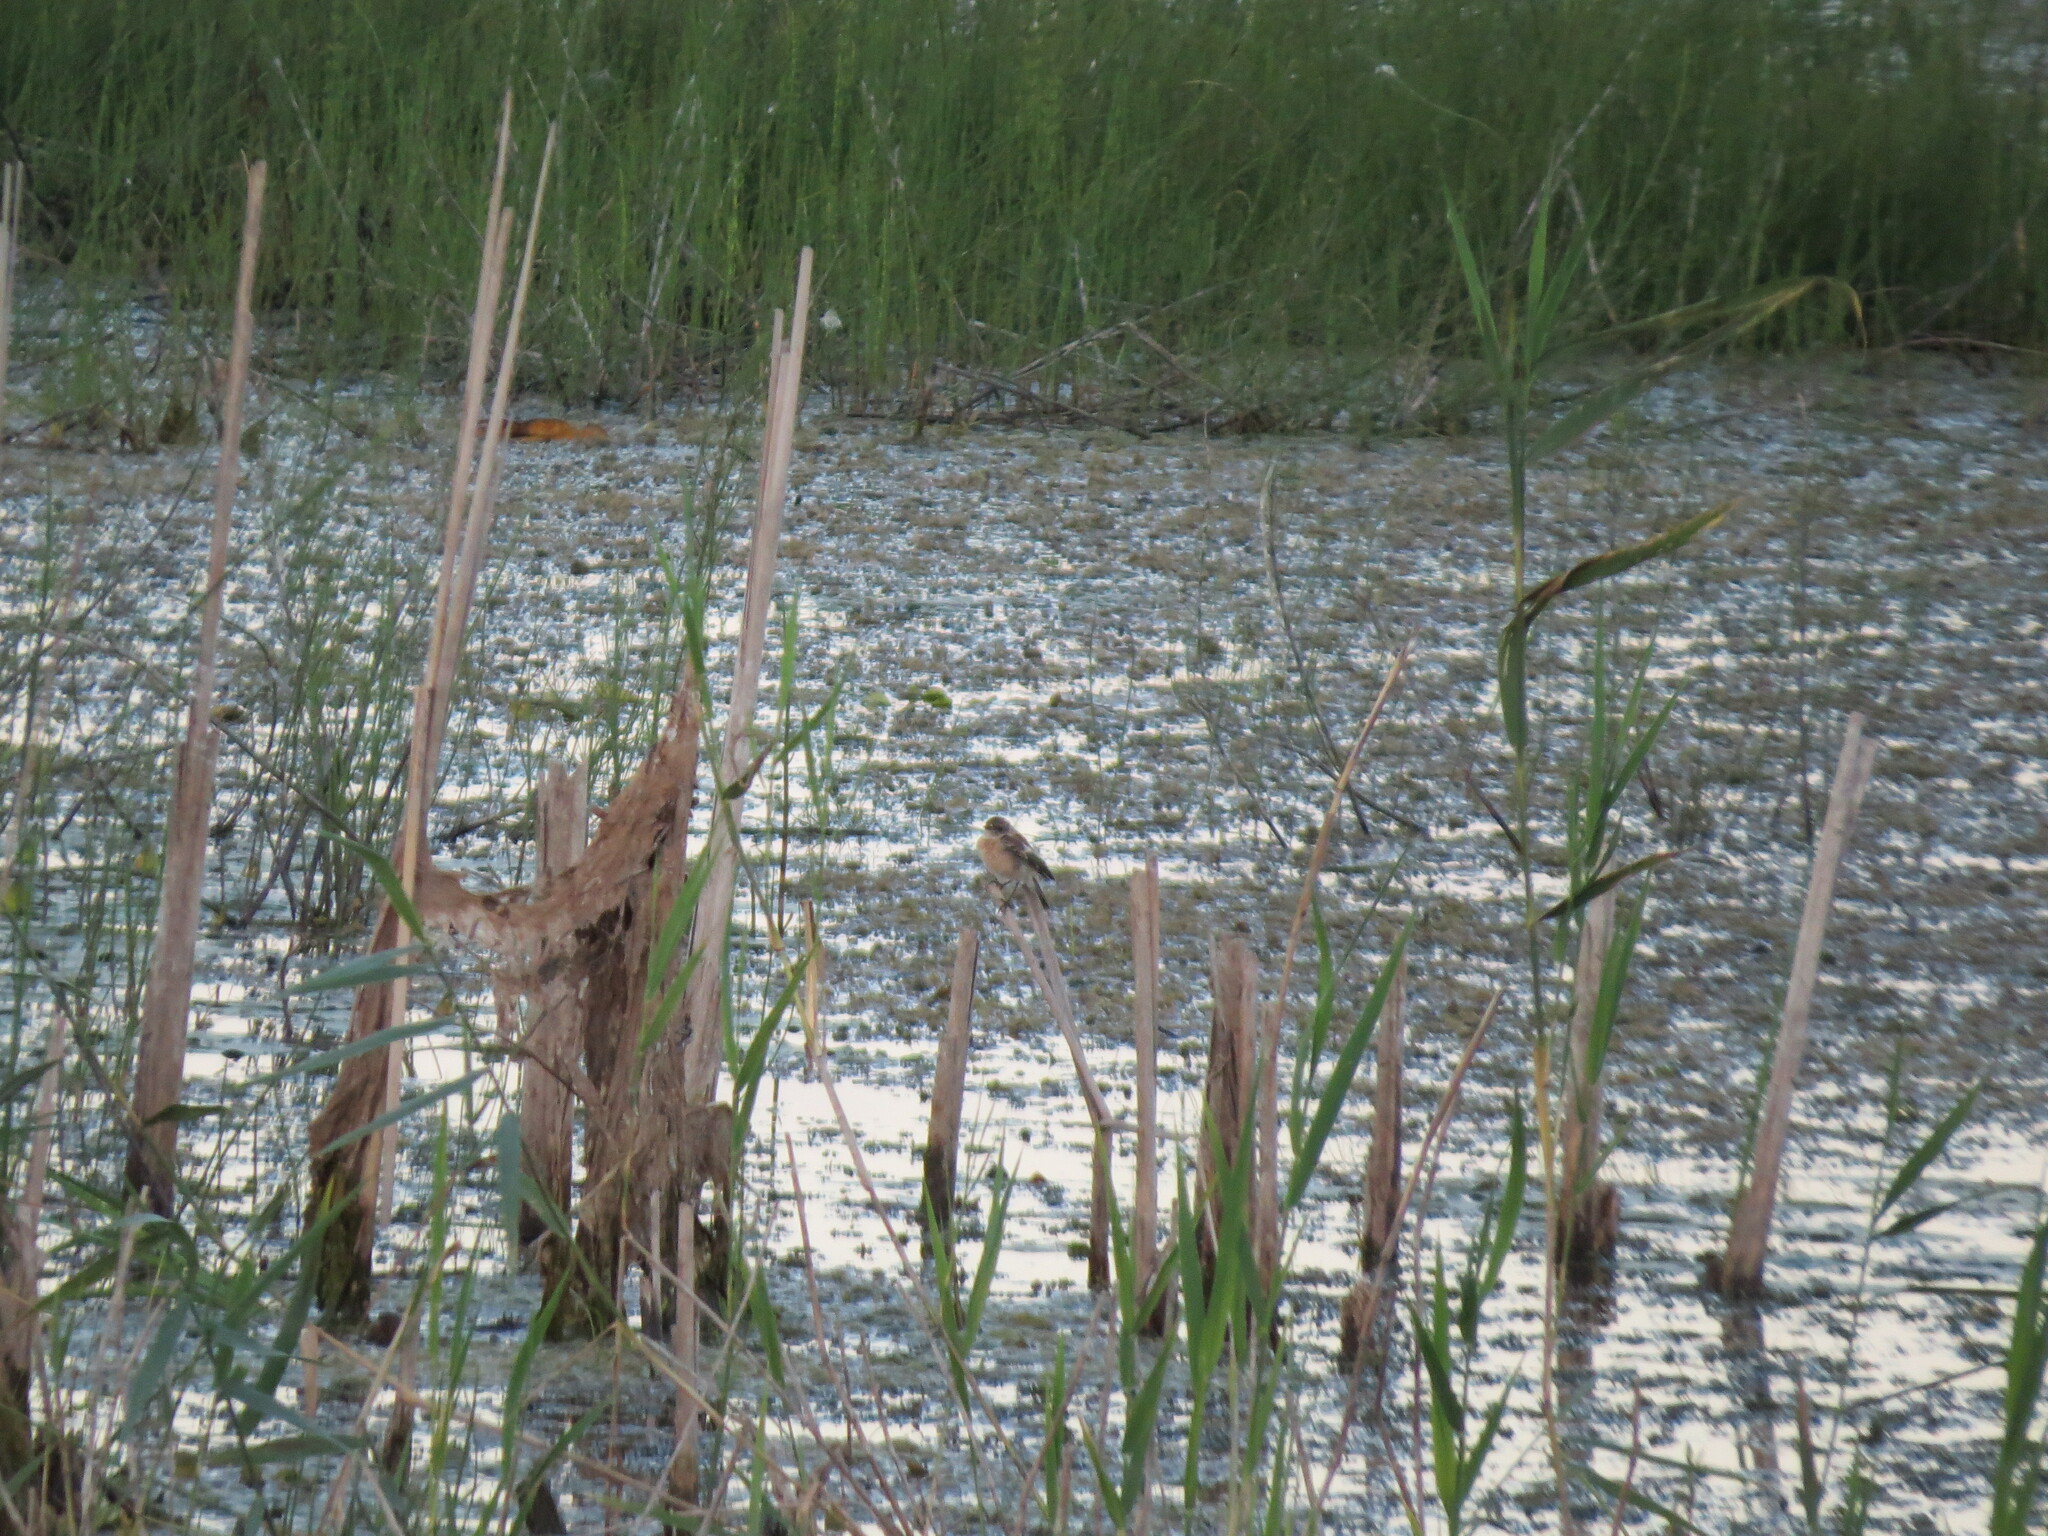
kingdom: Animalia
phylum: Chordata
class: Aves
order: Passeriformes
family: Muscicapidae
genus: Saxicola
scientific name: Saxicola maurus
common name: Siberian stonechat
